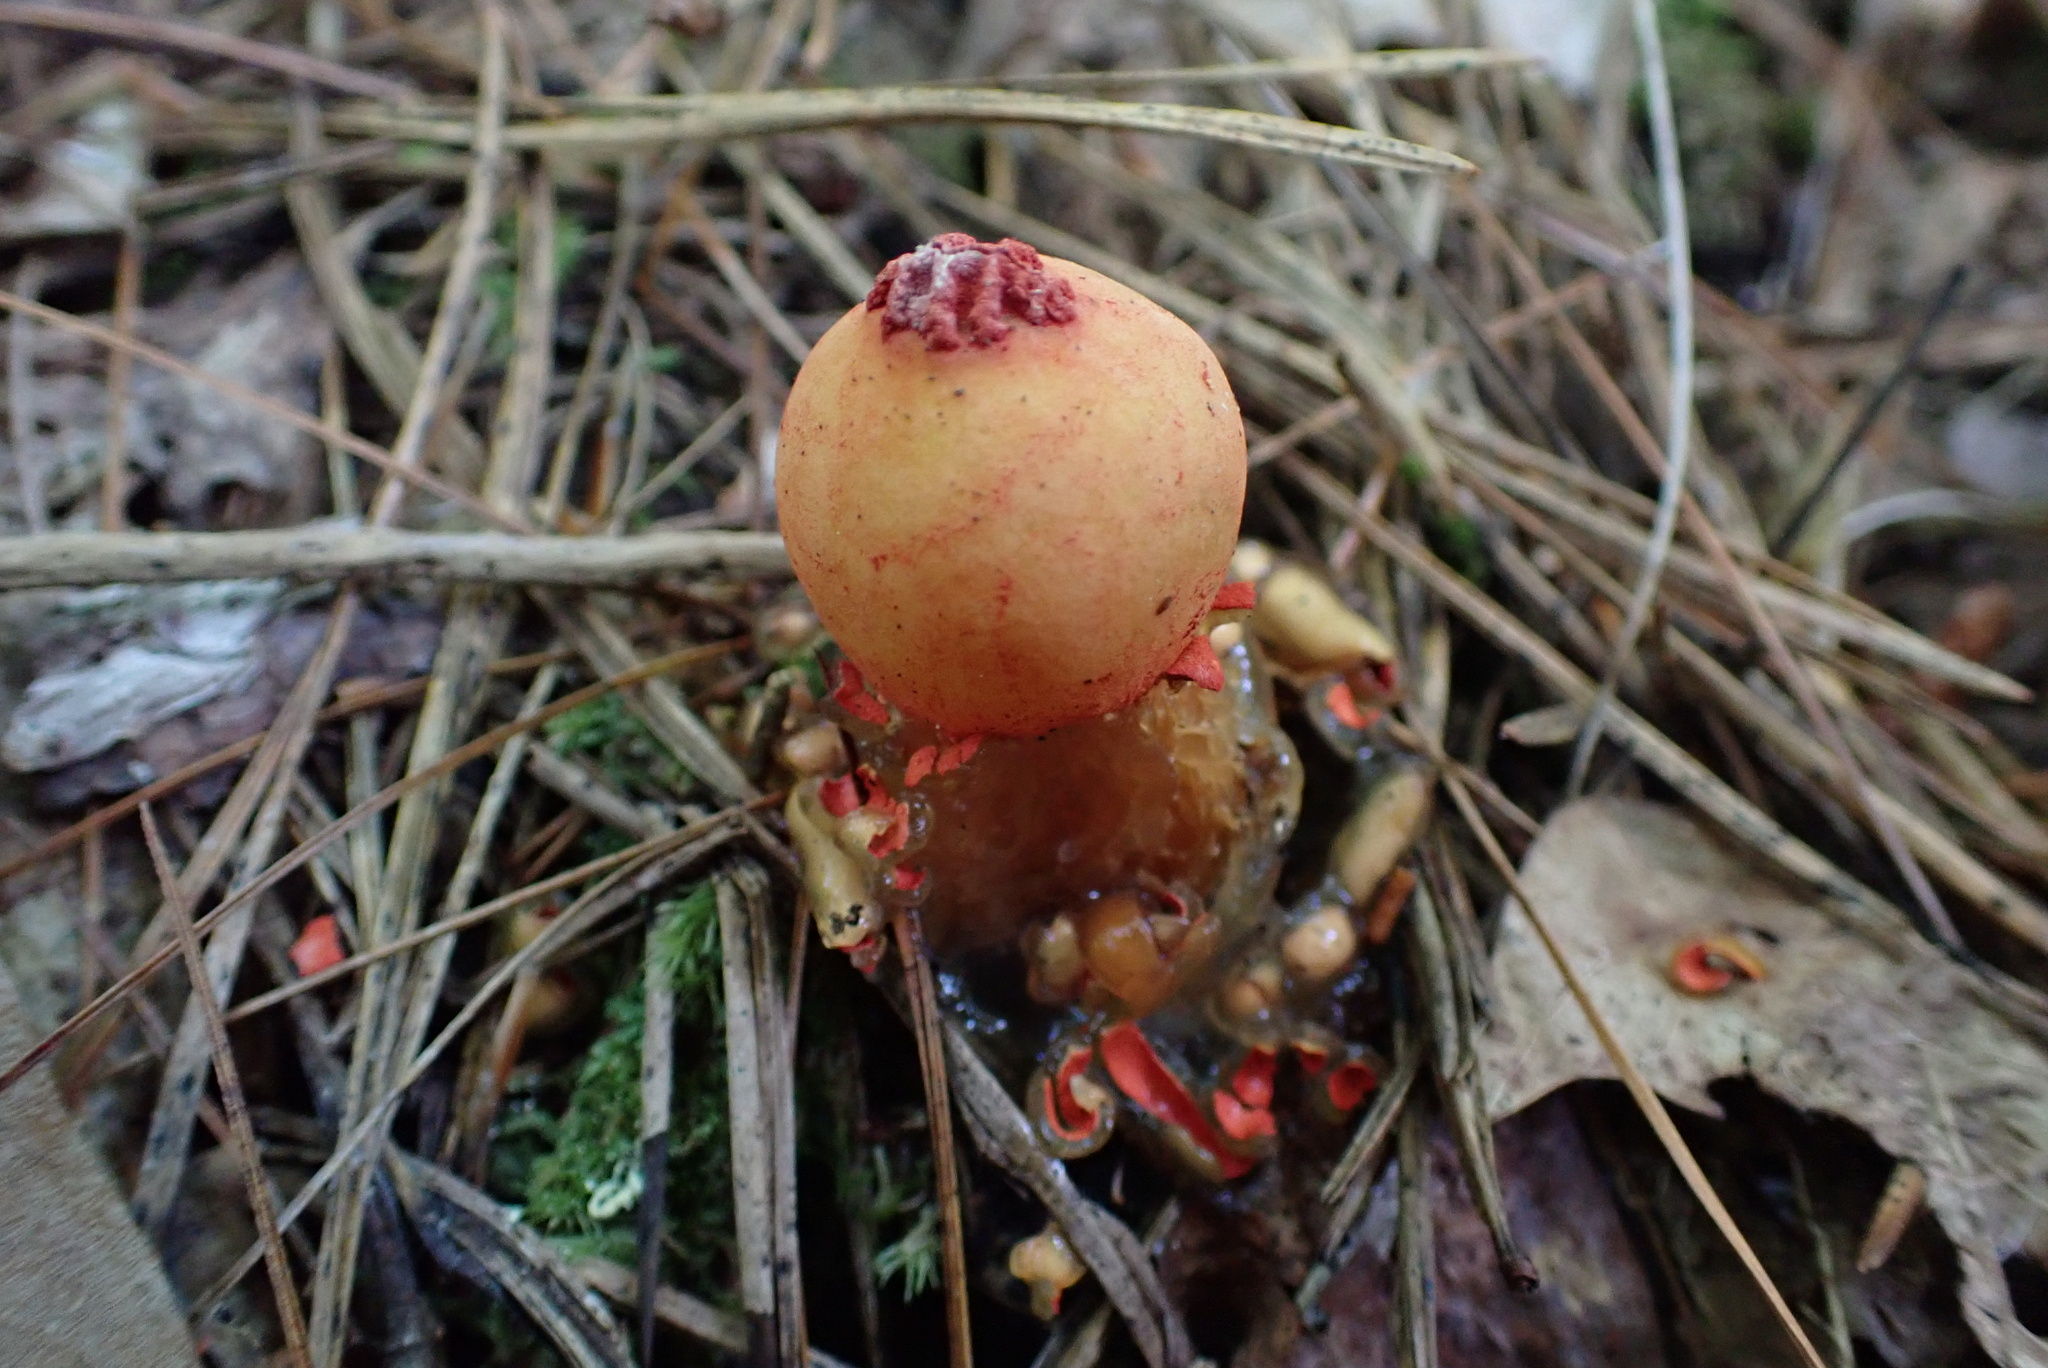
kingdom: Fungi
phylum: Basidiomycota
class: Agaricomycetes
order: Boletales
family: Calostomataceae
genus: Calostoma
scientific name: Calostoma cinnabarinum
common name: Stalked puffball-in-aspic
